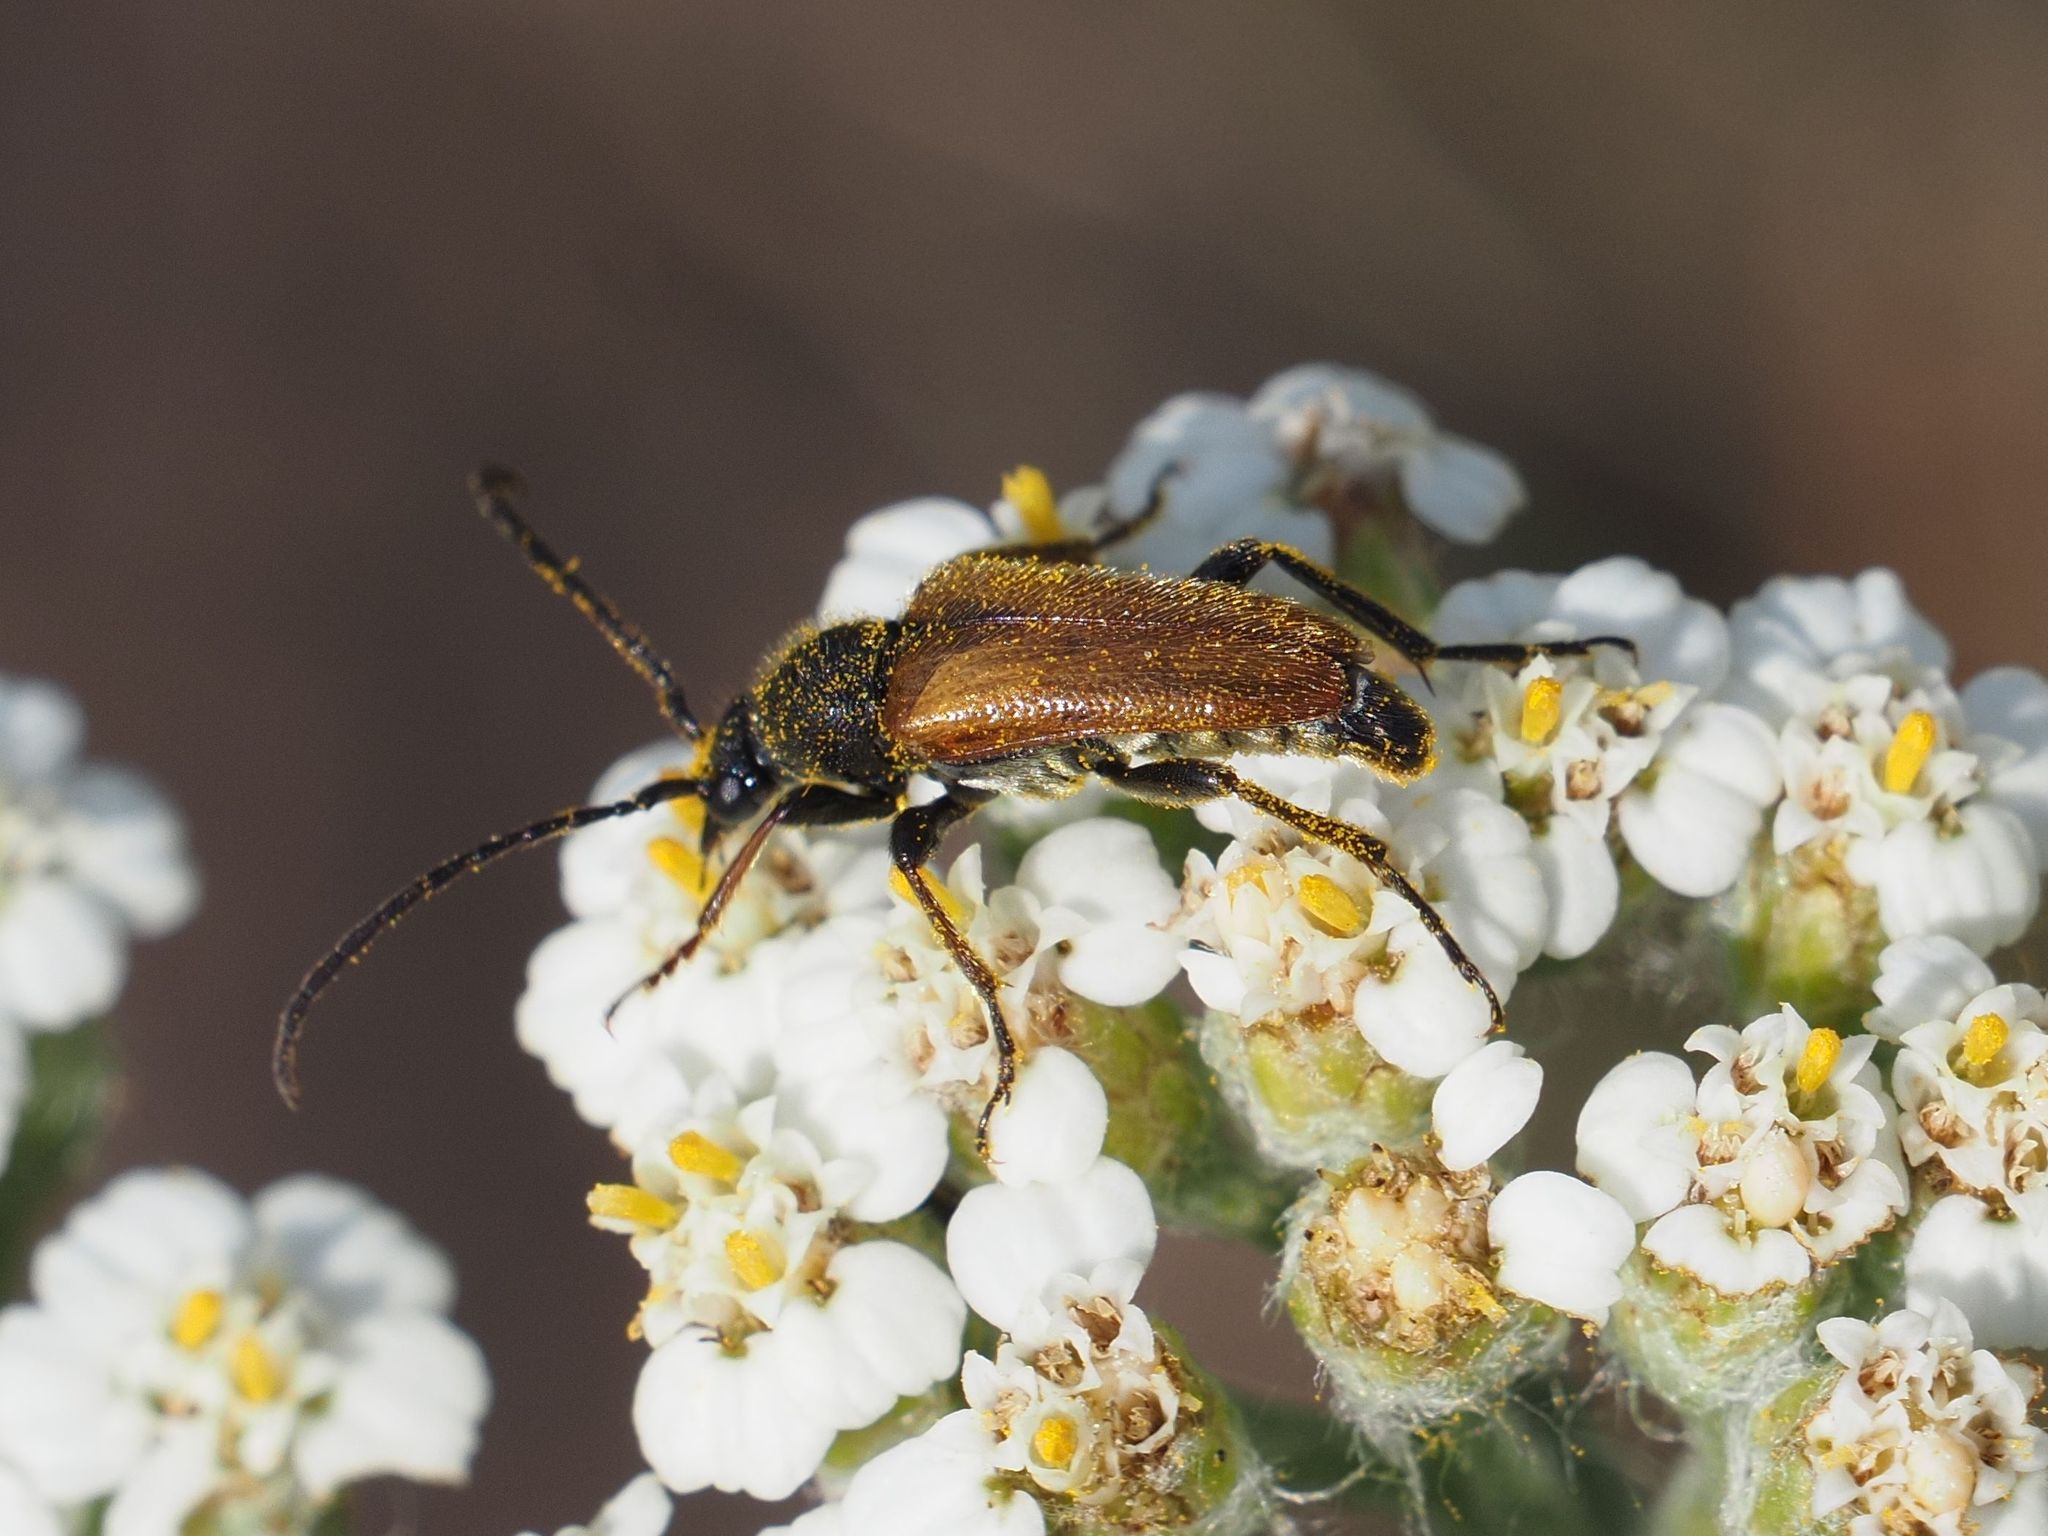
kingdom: Animalia
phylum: Arthropoda
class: Insecta
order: Coleoptera
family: Cerambycidae
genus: Pseudovadonia
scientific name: Pseudovadonia livida
